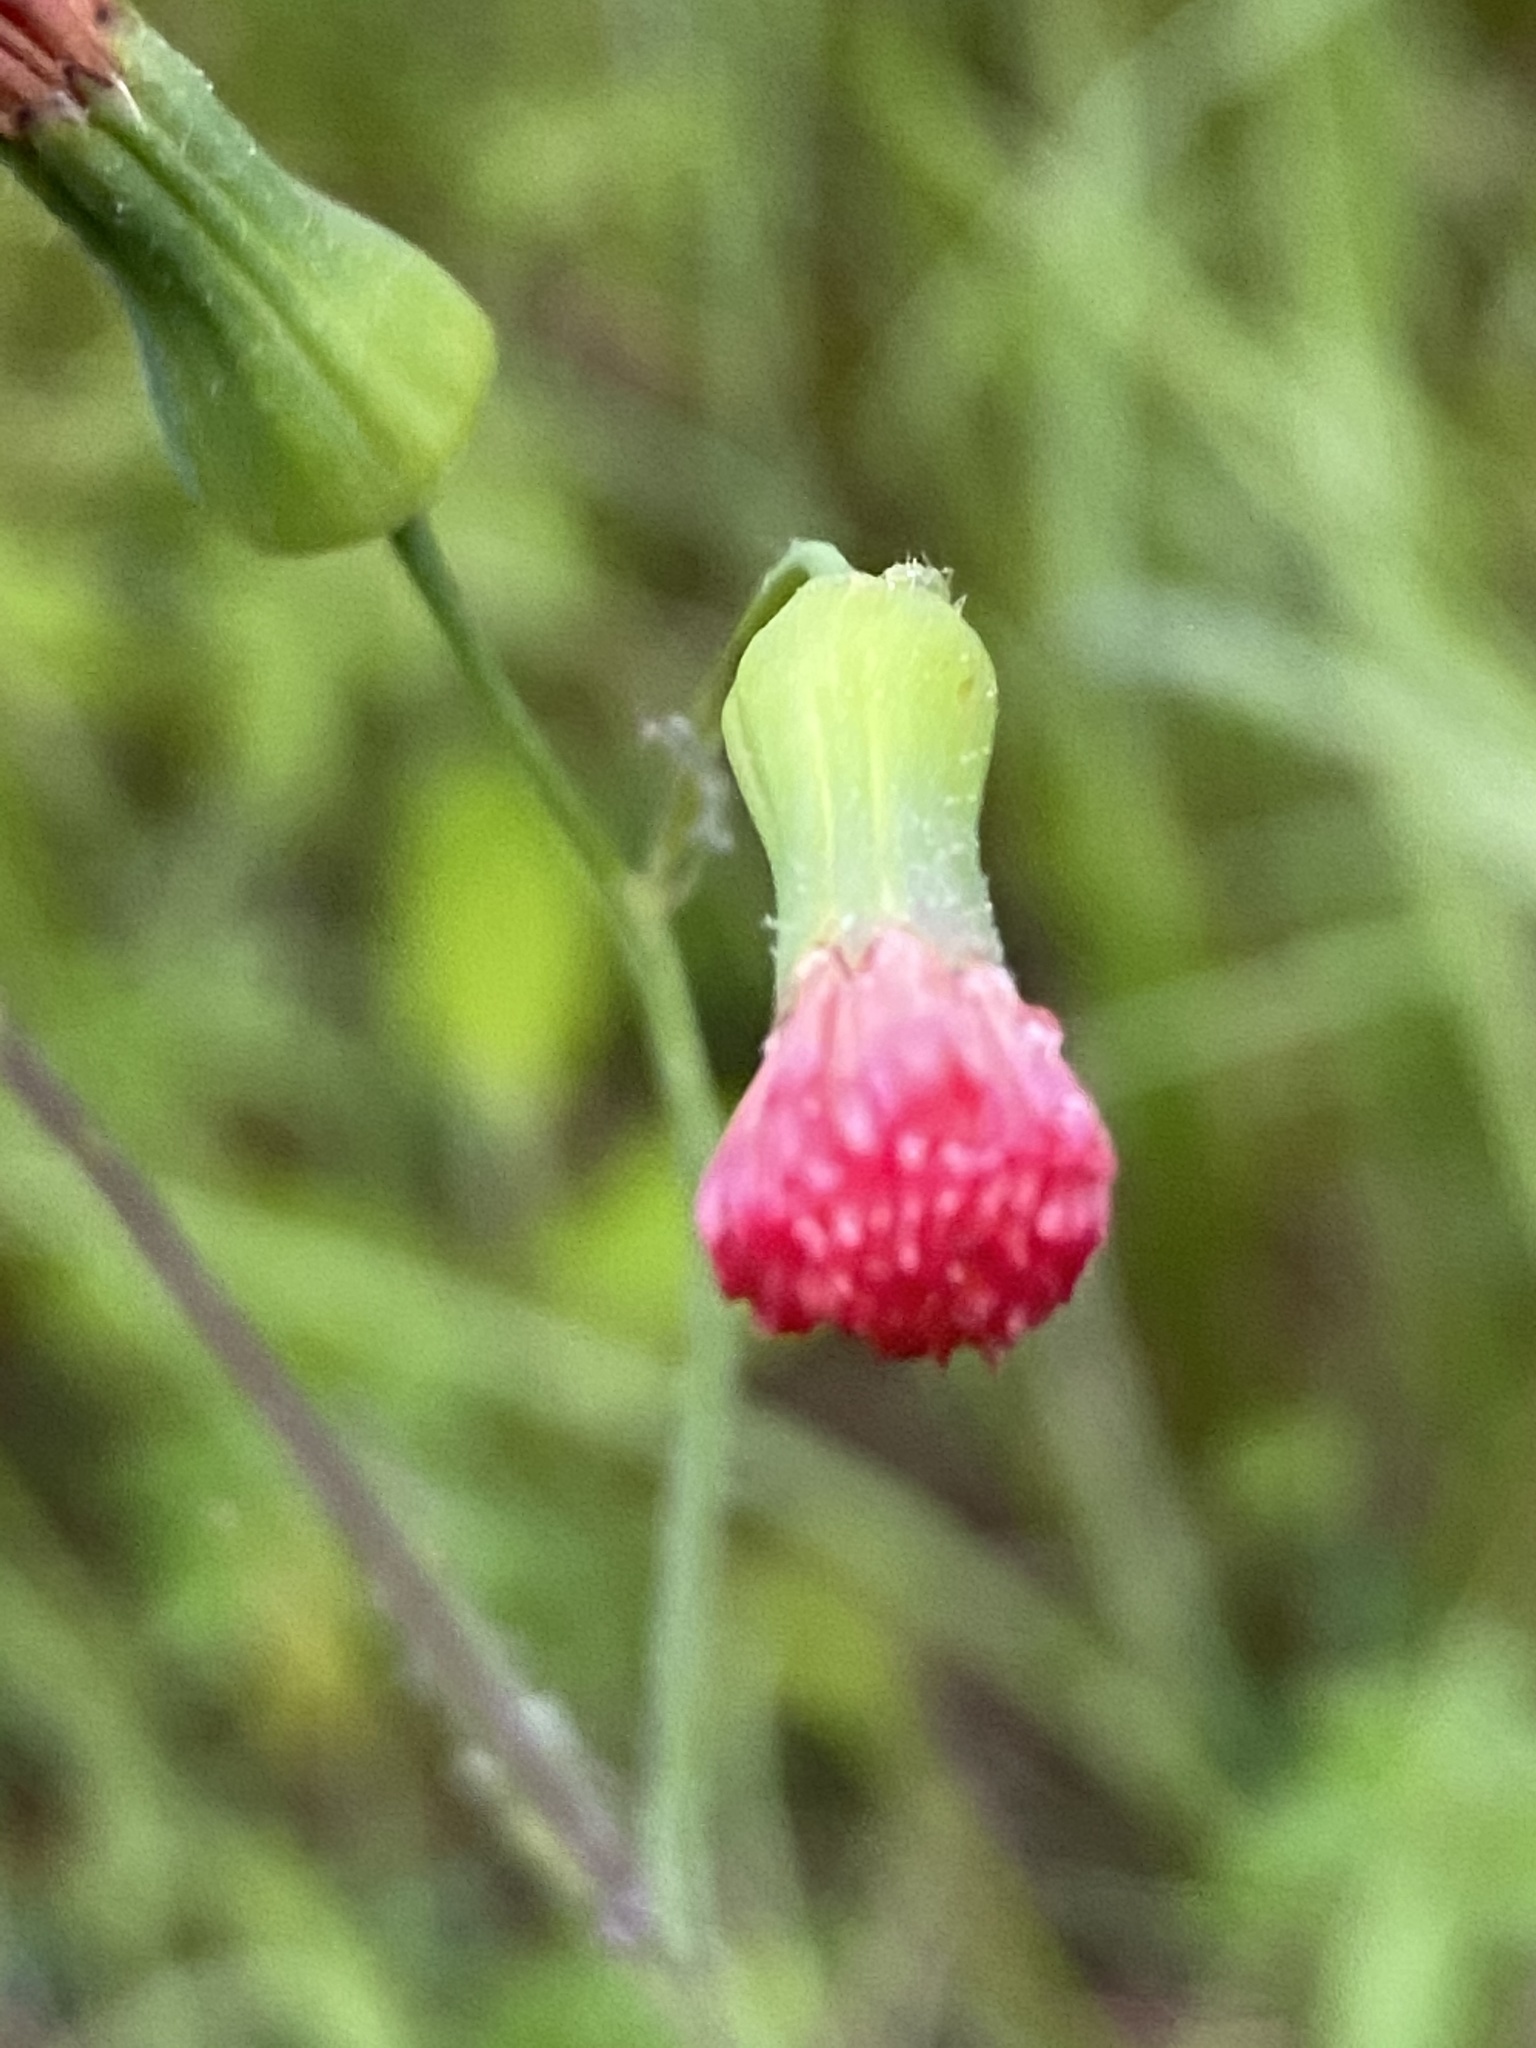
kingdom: Plantae
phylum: Tracheophyta
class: Magnoliopsida
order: Asterales
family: Asteraceae
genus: Emilia
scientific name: Emilia fosbergii
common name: Florida tasselflower
